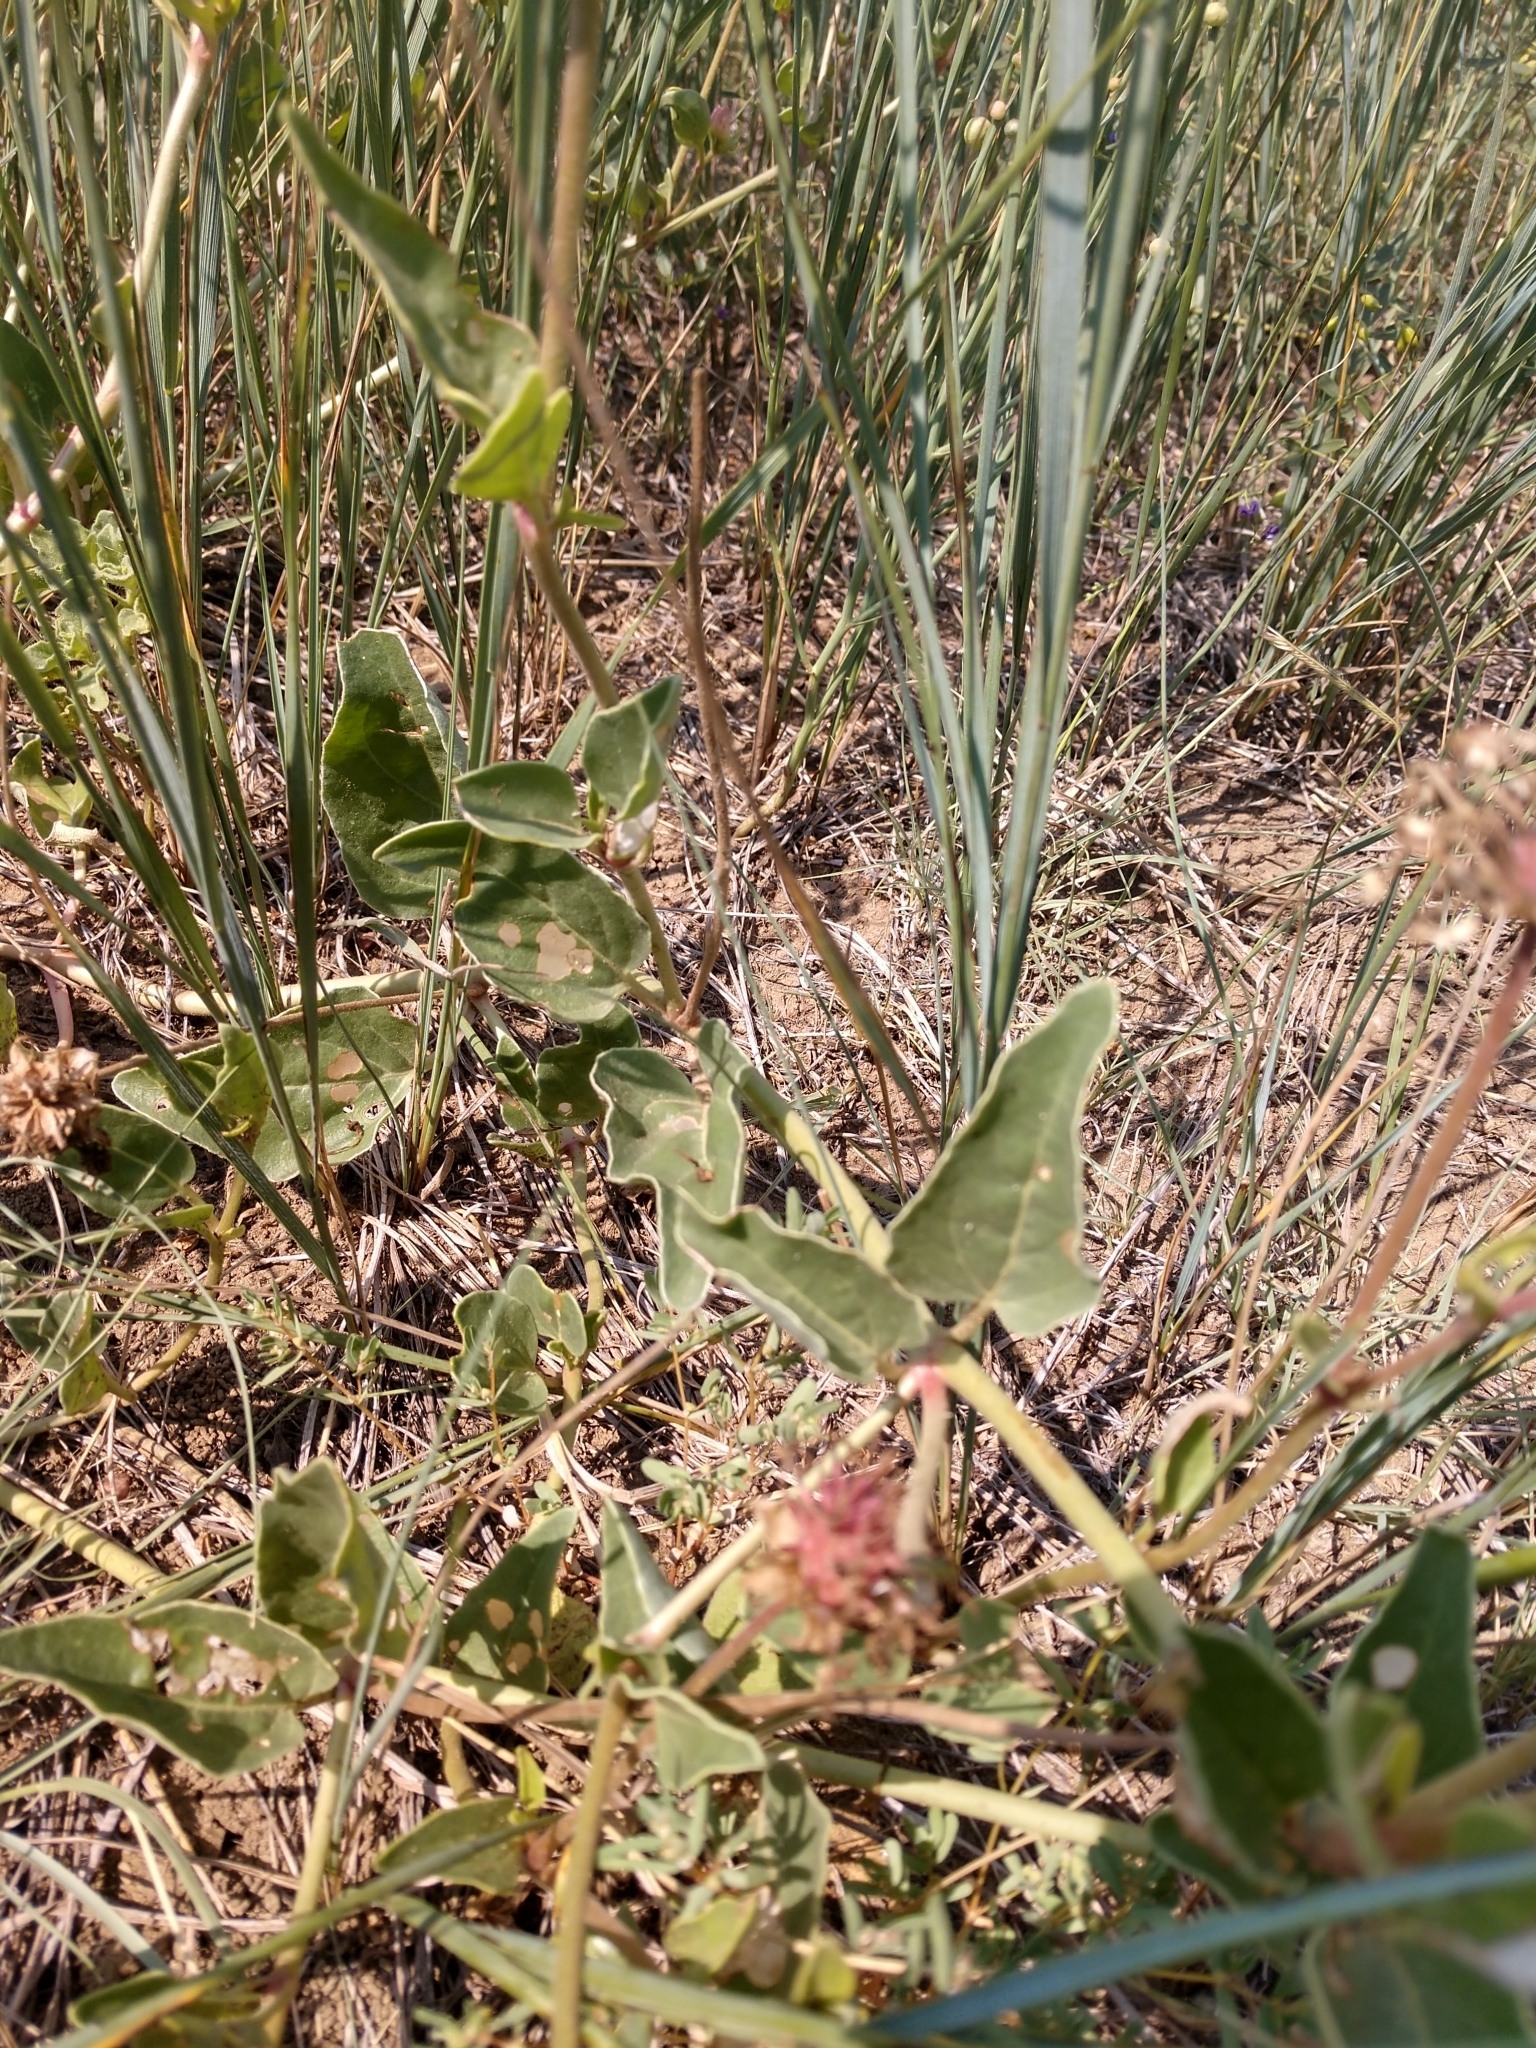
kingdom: Plantae
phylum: Tracheophyta
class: Magnoliopsida
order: Caryophyllales
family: Nyctaginaceae
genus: Abronia
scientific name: Abronia fragrans
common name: Fragrant sand-verbena
